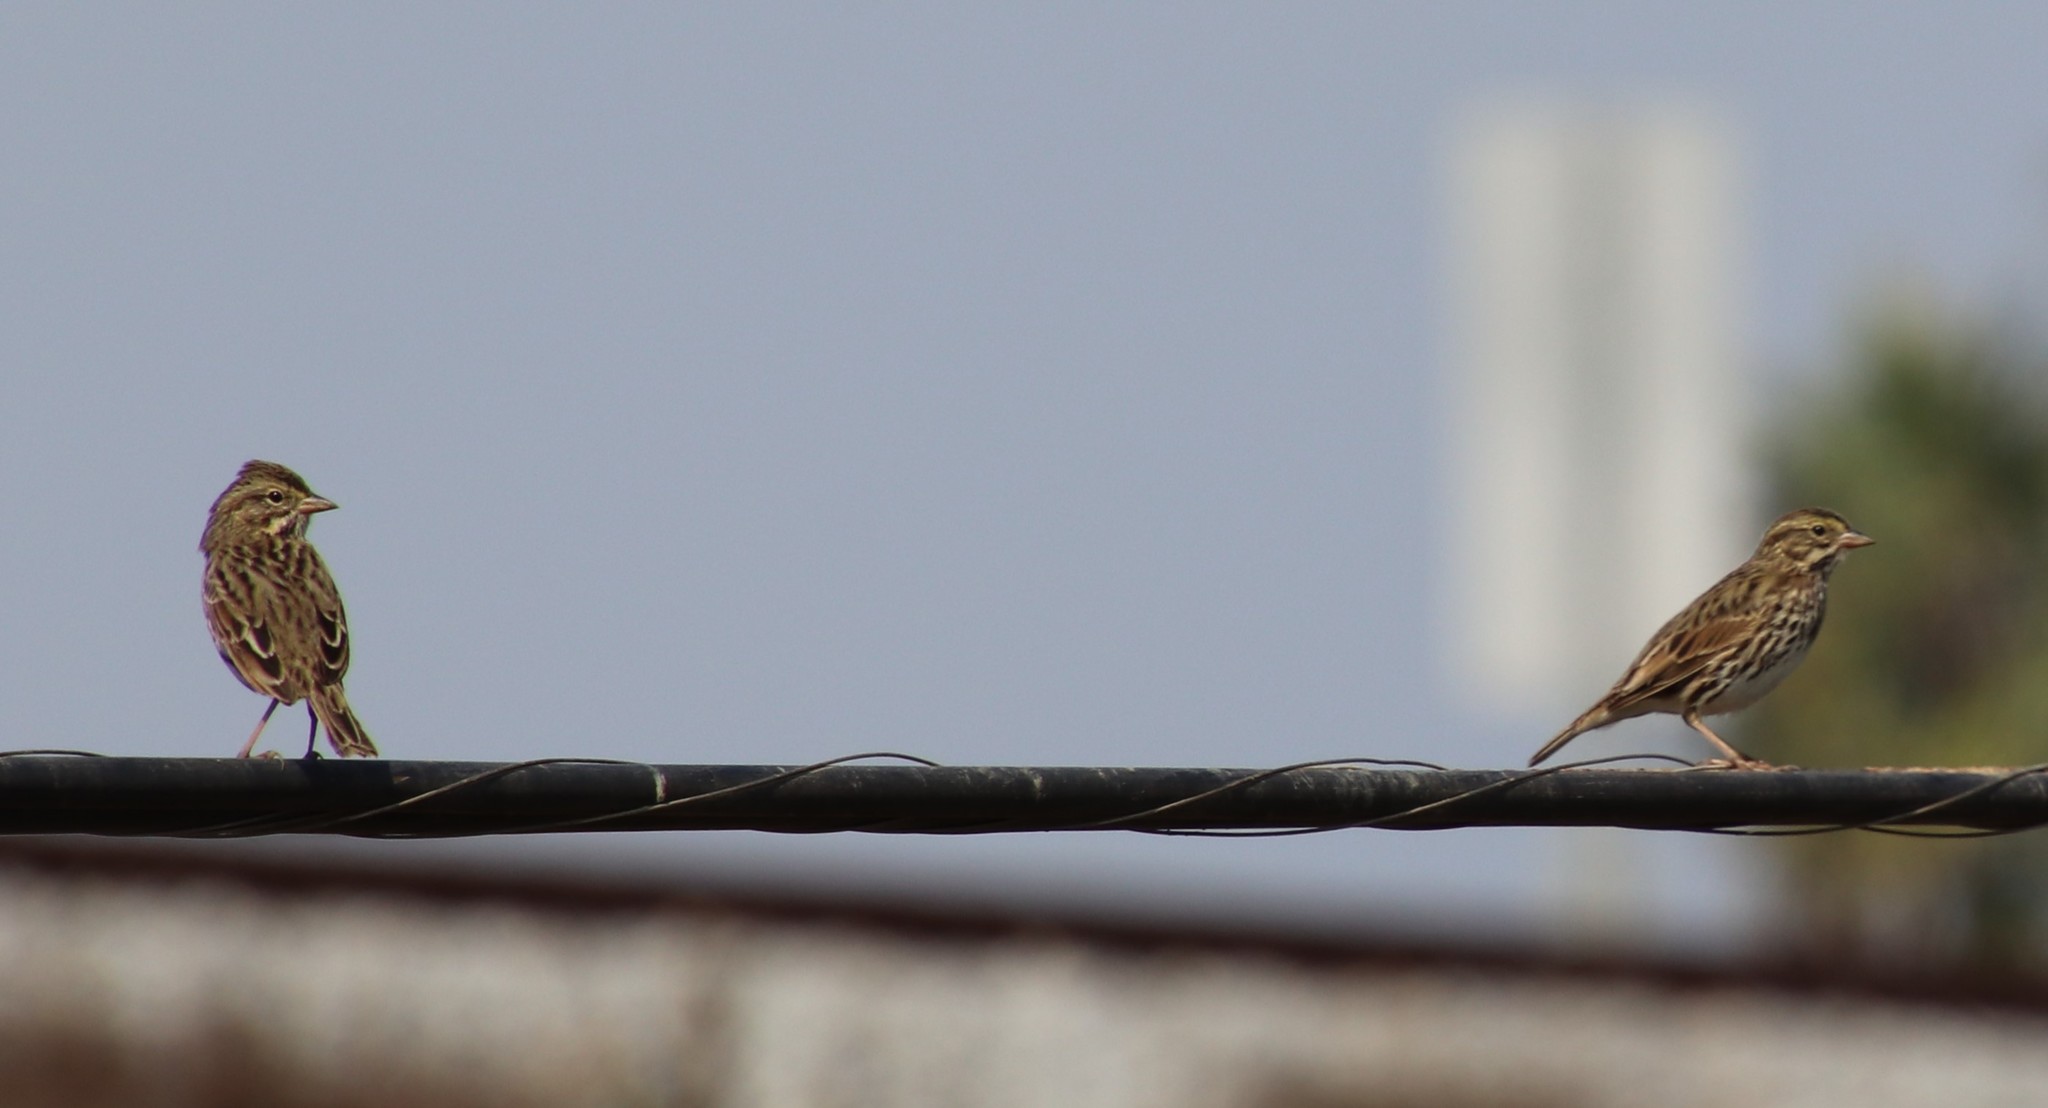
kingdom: Animalia
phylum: Chordata
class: Aves
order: Passeriformes
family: Passerellidae
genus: Passerculus
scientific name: Passerculus sandwichensis
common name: Savannah sparrow
